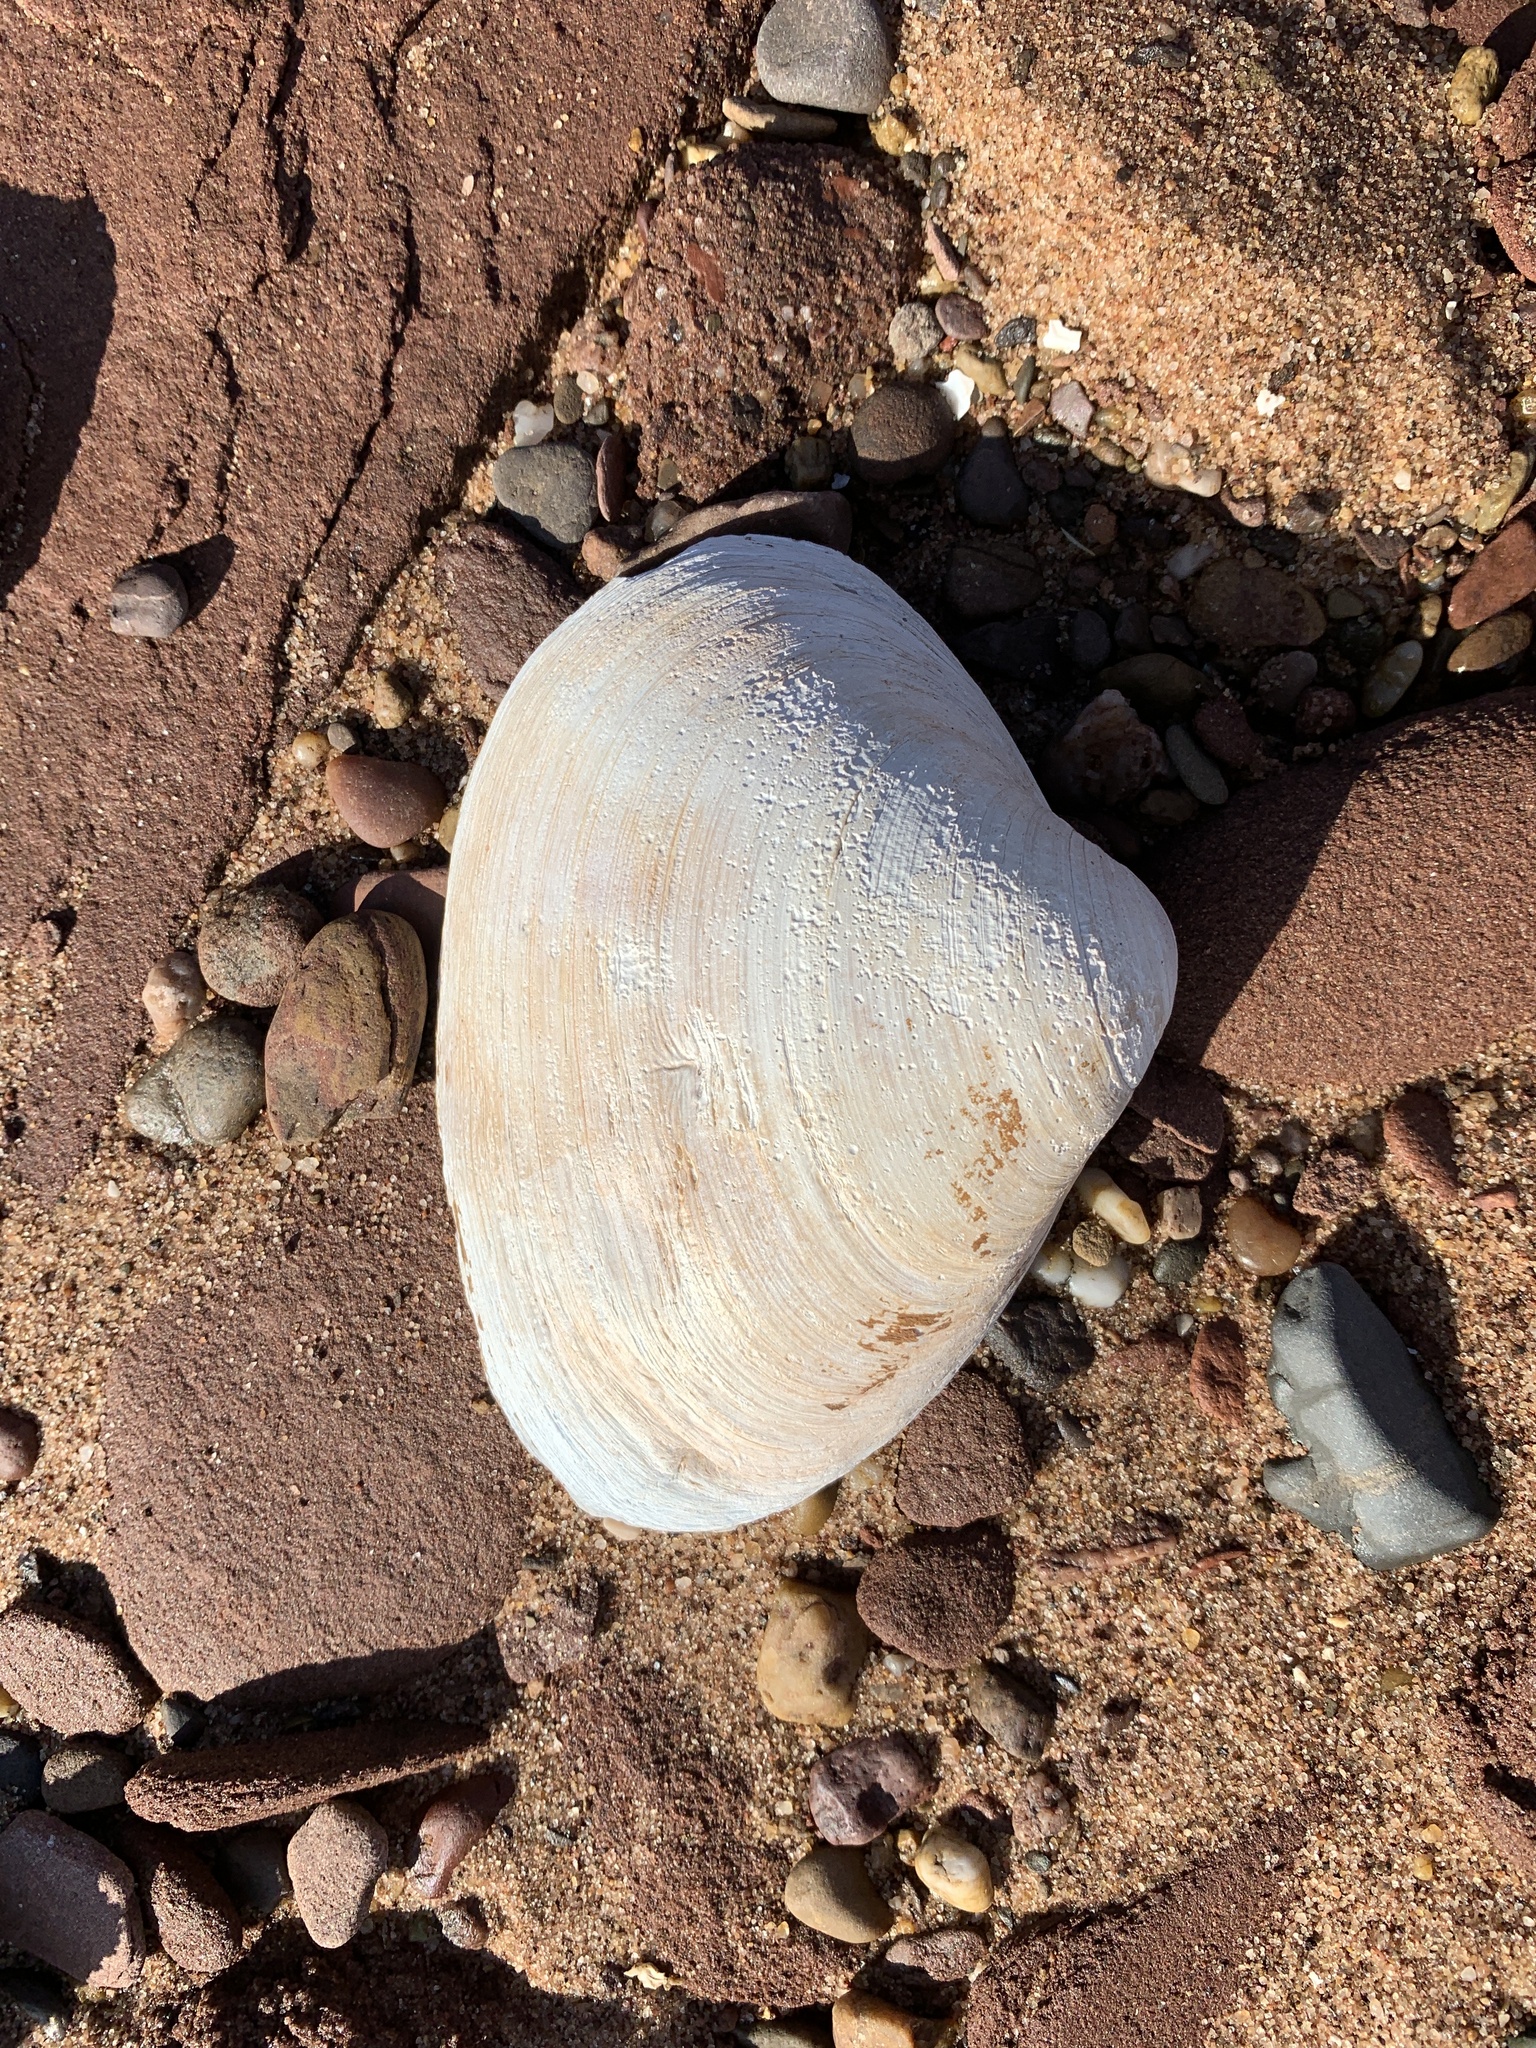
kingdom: Animalia
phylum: Mollusca
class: Bivalvia
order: Venerida
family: Mactridae
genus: Spisula
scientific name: Spisula solidissima
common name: Atlantic surf clam
